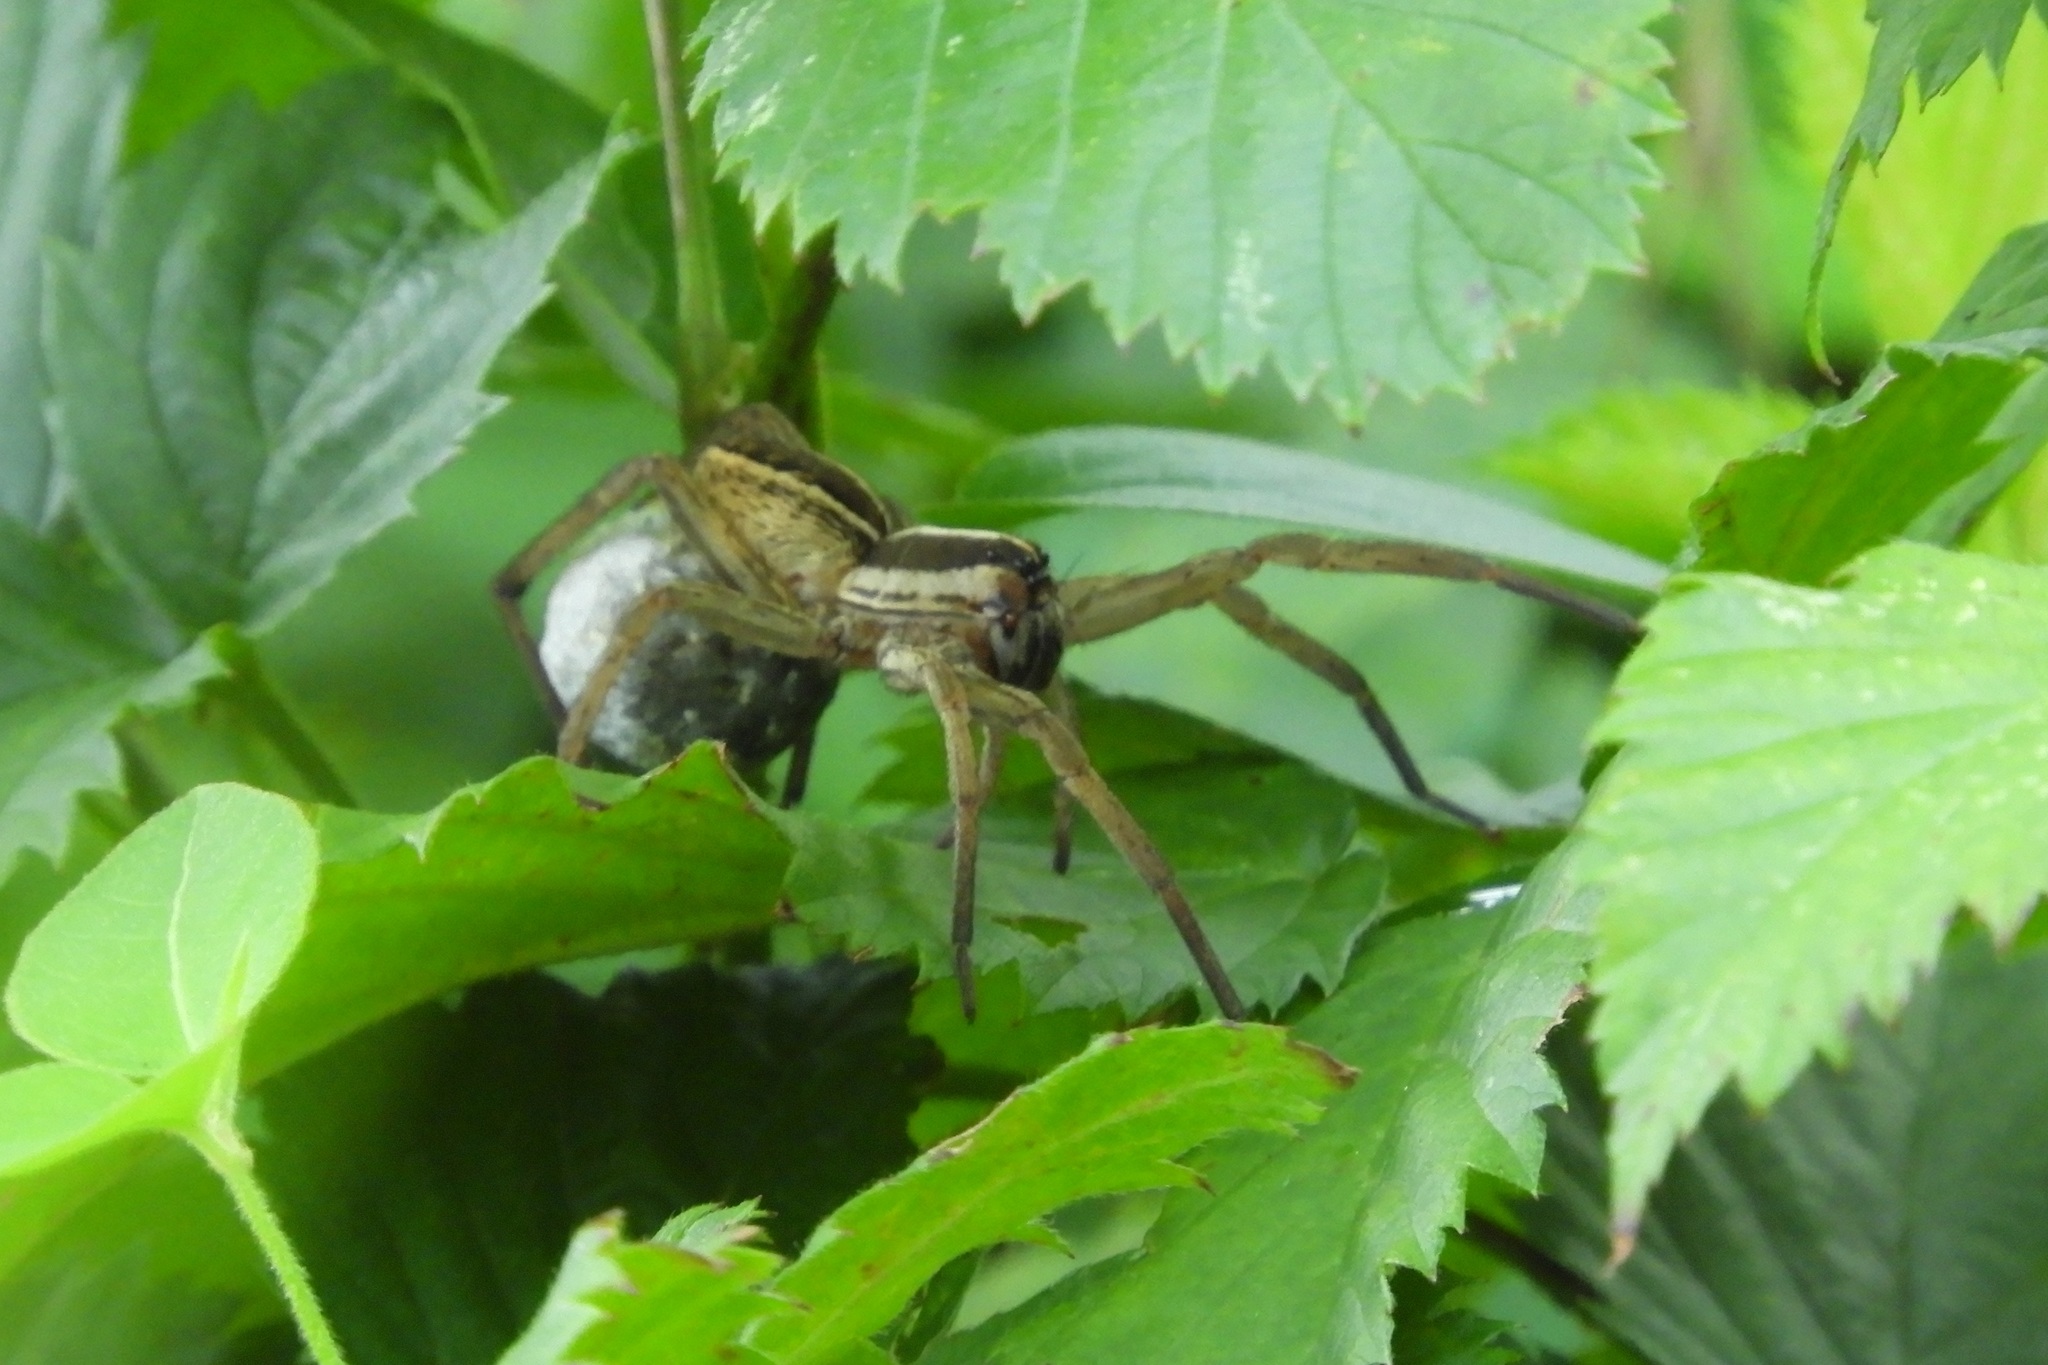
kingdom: Animalia
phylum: Arthropoda
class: Arachnida
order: Araneae
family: Lycosidae
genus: Rabidosa
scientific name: Rabidosa rabida
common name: Rabid wolf spider
